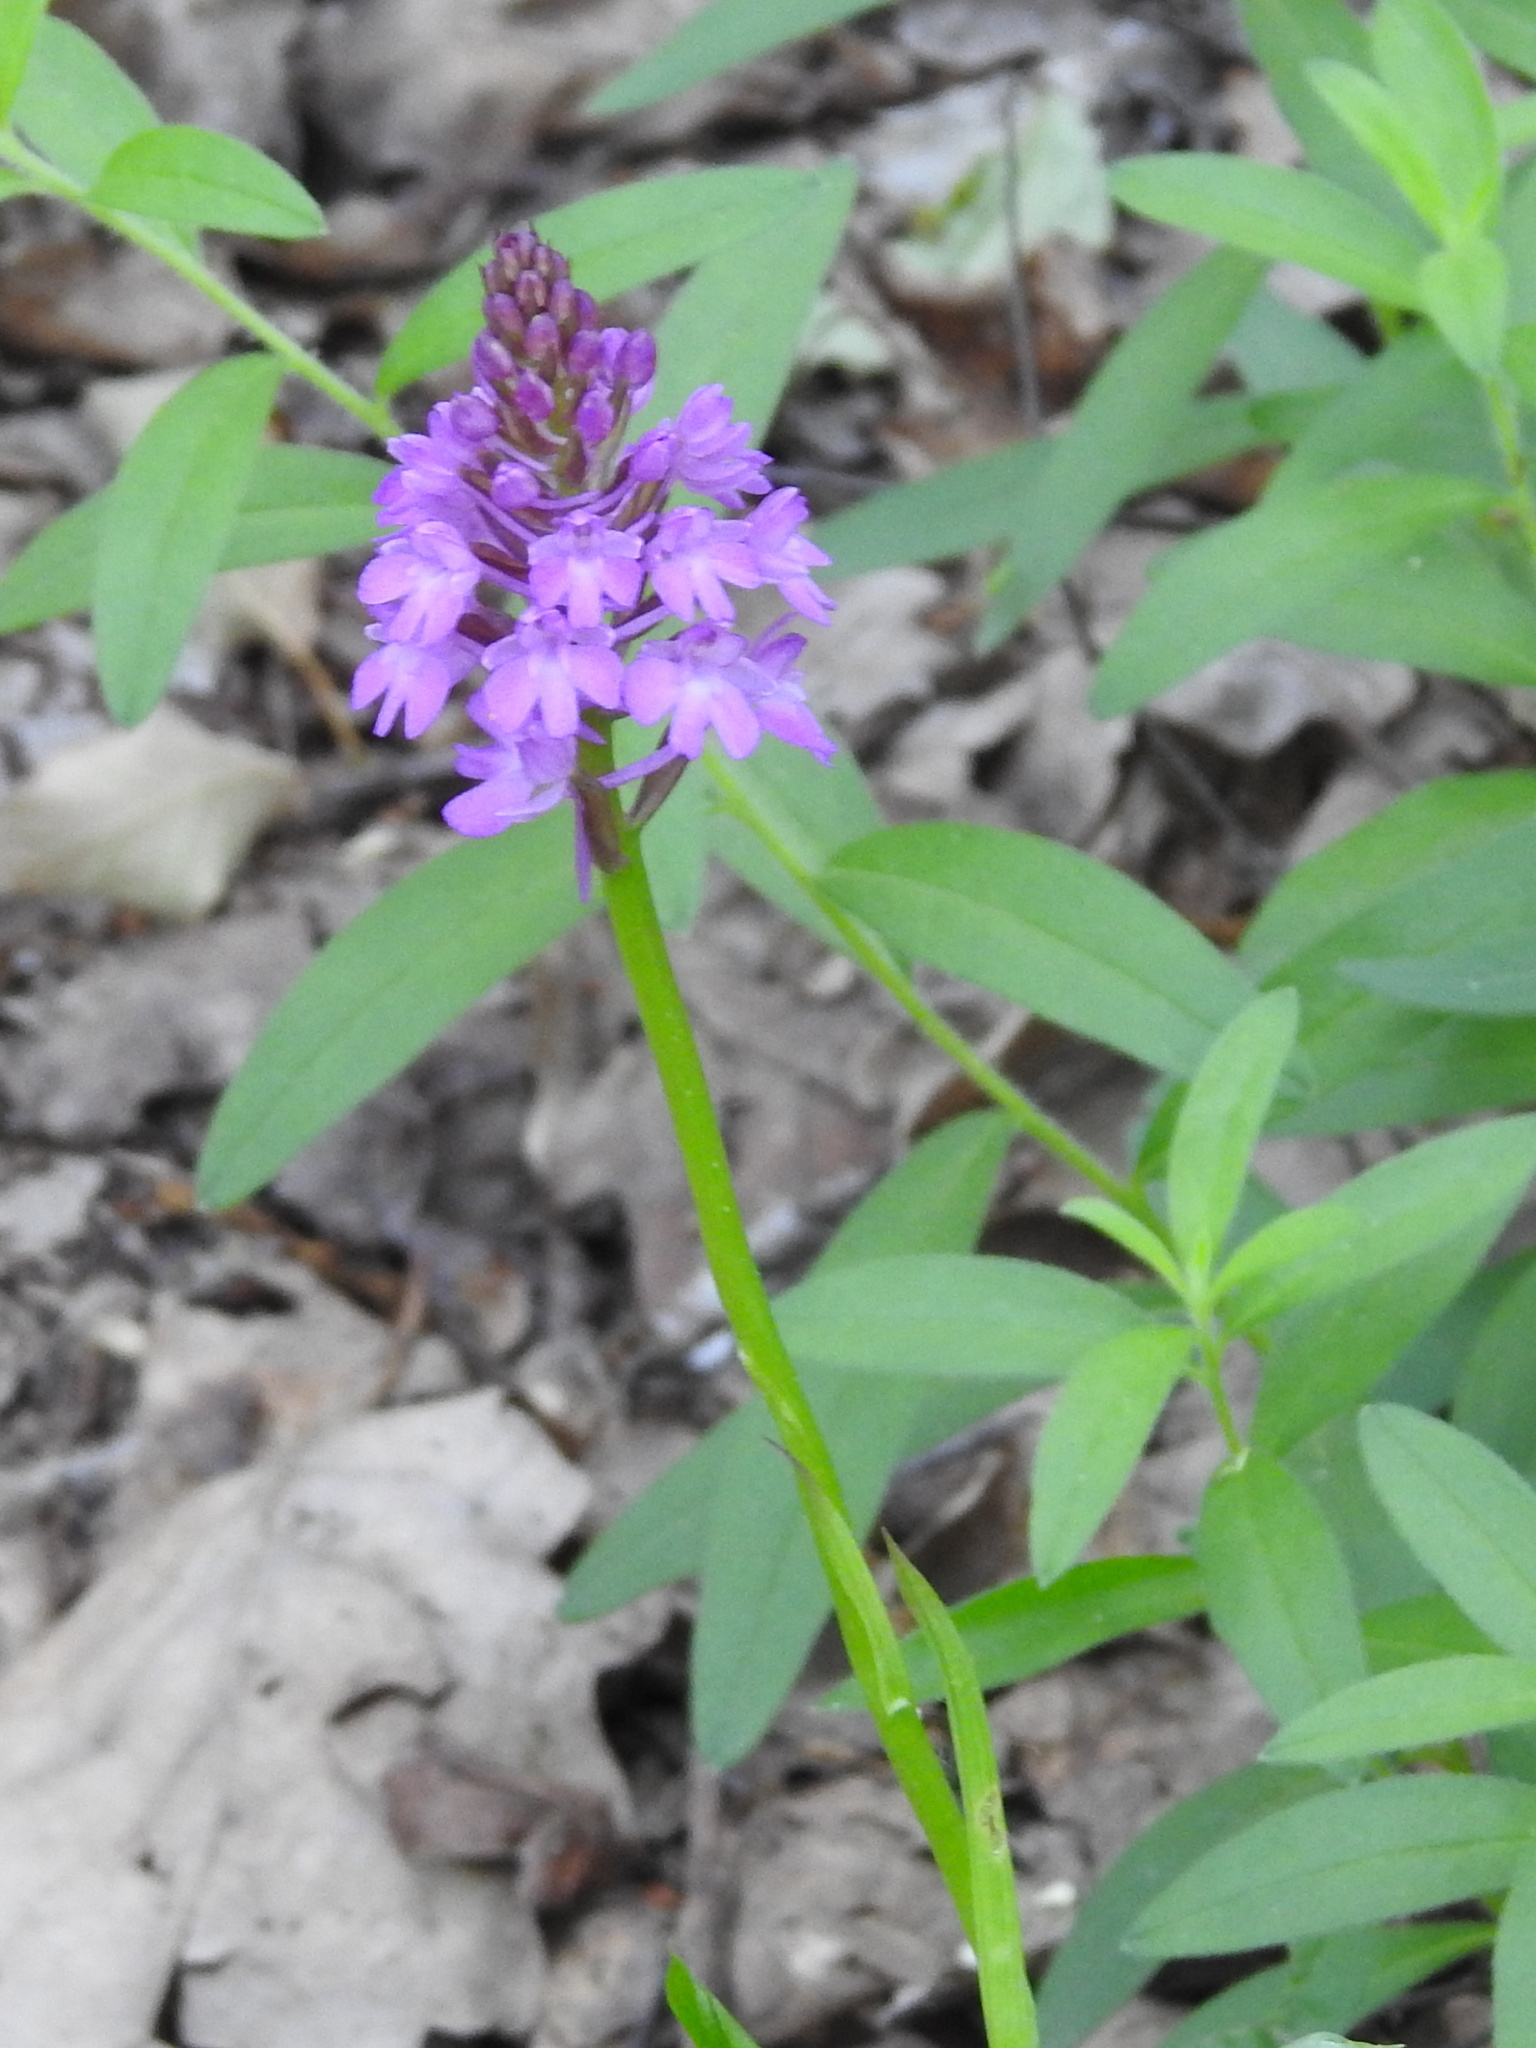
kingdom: Plantae
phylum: Tracheophyta
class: Liliopsida
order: Asparagales
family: Orchidaceae
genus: Anacamptis
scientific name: Anacamptis pyramidalis
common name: Pyramidal orchid
